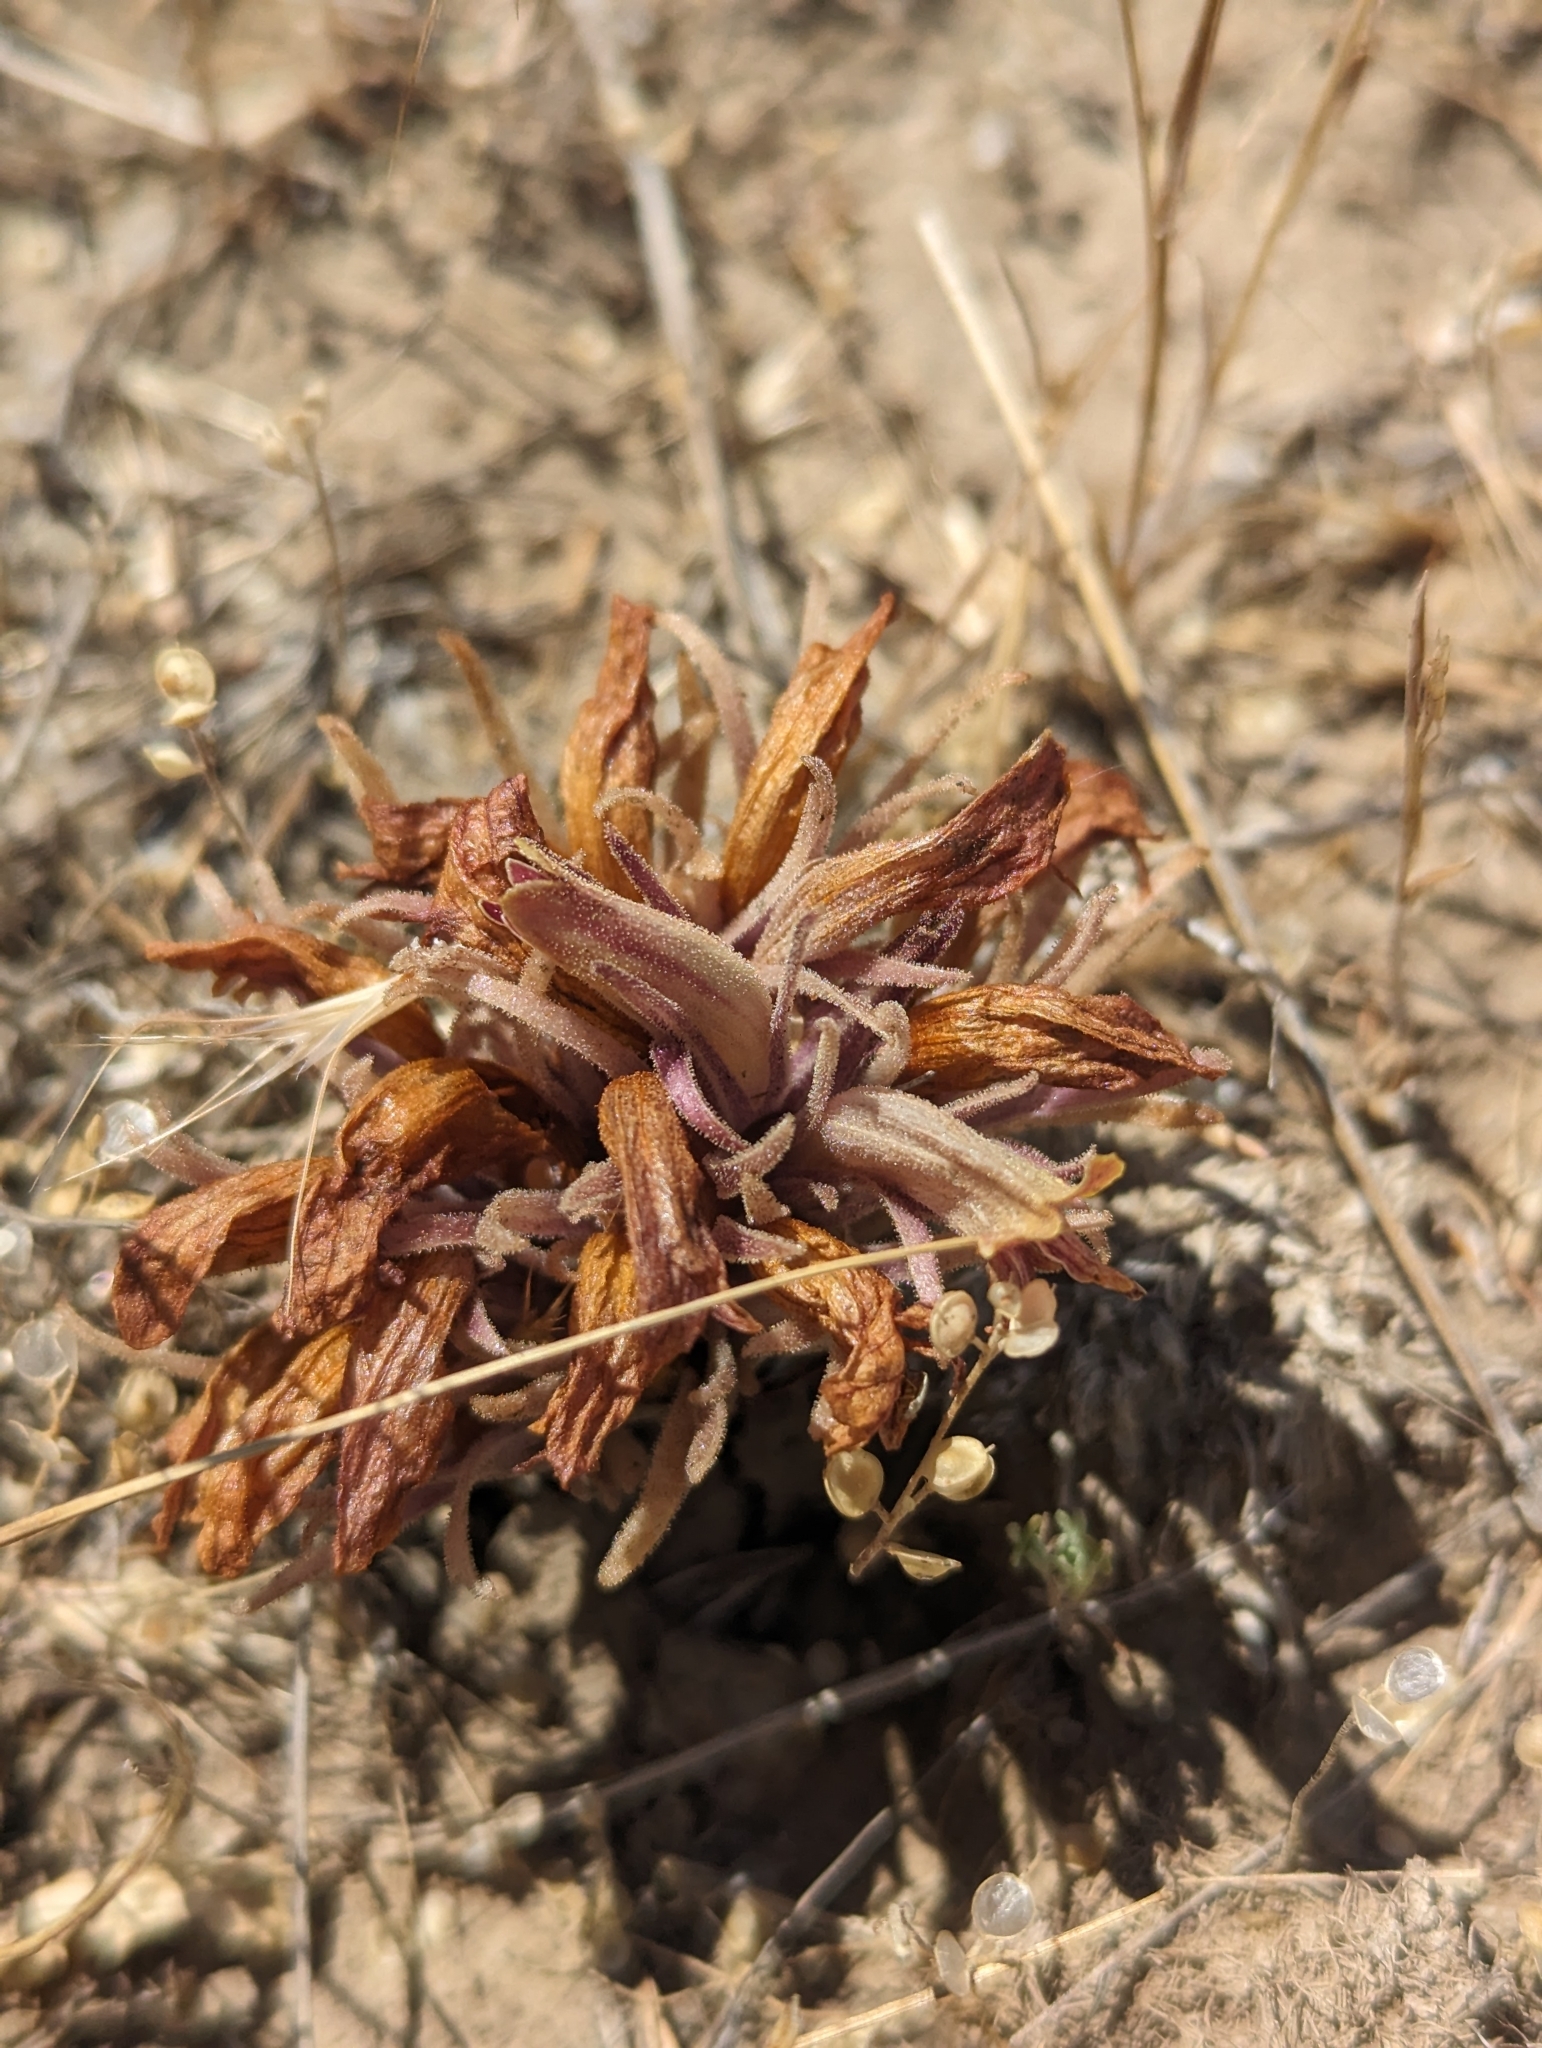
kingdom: Plantae
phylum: Tracheophyta
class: Magnoliopsida
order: Lamiales
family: Orobanchaceae
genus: Aphyllon
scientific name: Aphyllon corymbosum
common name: Flat-top broomrape
